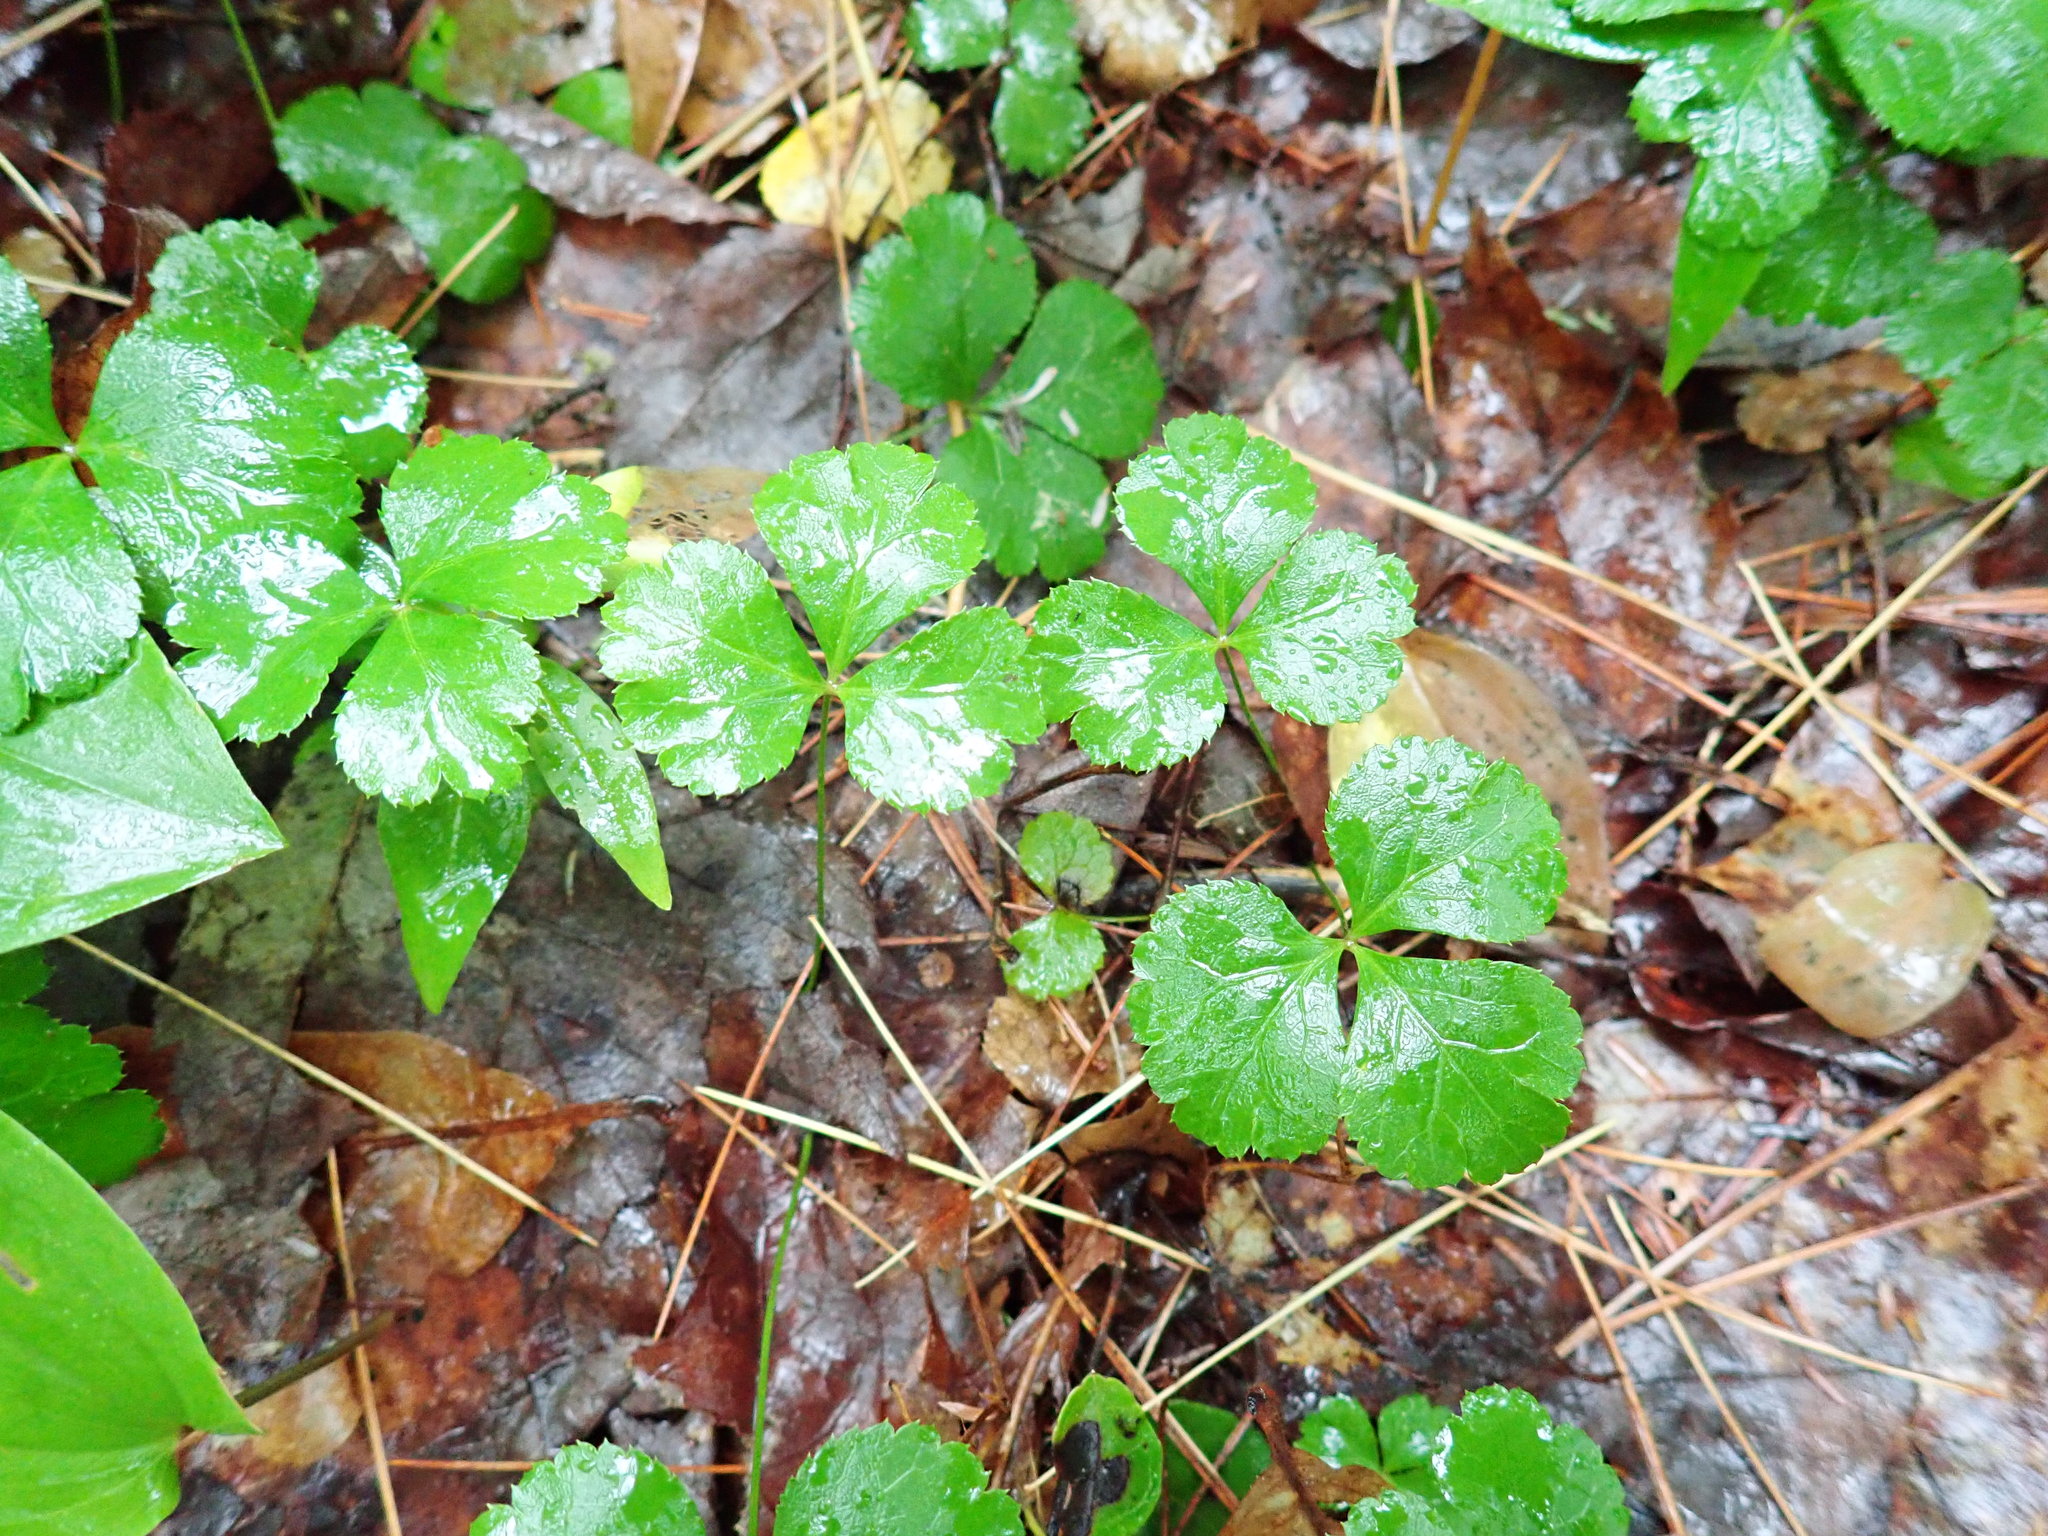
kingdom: Plantae
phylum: Tracheophyta
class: Magnoliopsida
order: Ranunculales
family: Ranunculaceae
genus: Coptis
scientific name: Coptis trifolia
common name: Canker-root
